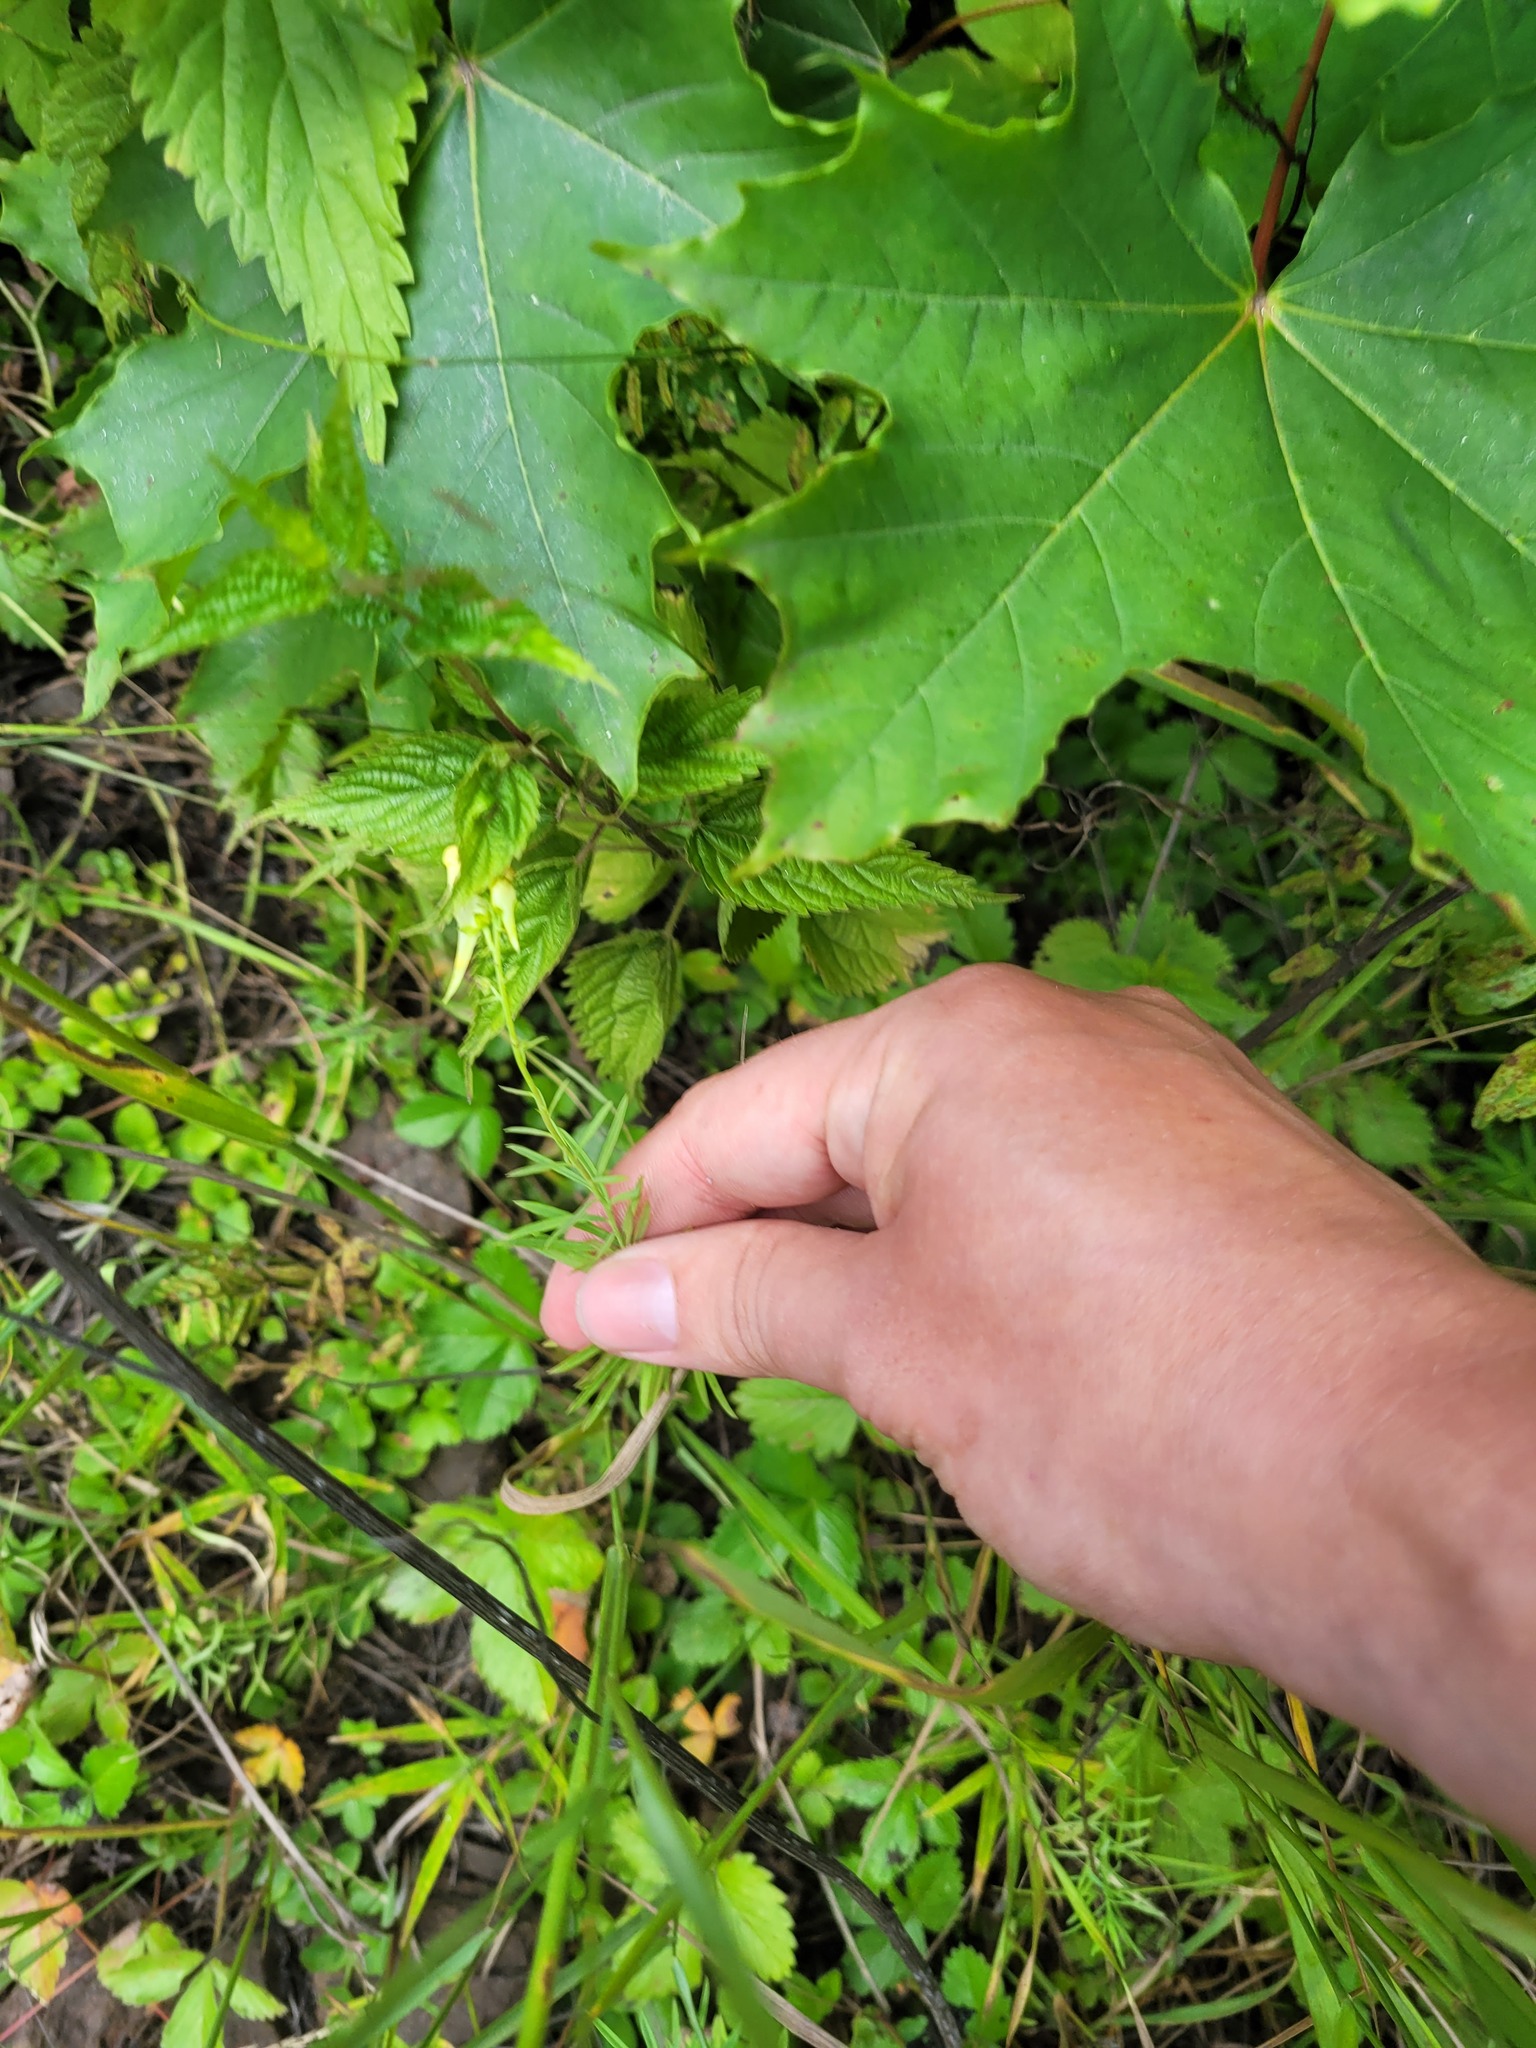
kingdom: Plantae
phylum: Tracheophyta
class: Magnoliopsida
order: Lamiales
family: Plantaginaceae
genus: Linaria
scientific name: Linaria vulgaris
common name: Butter and eggs
